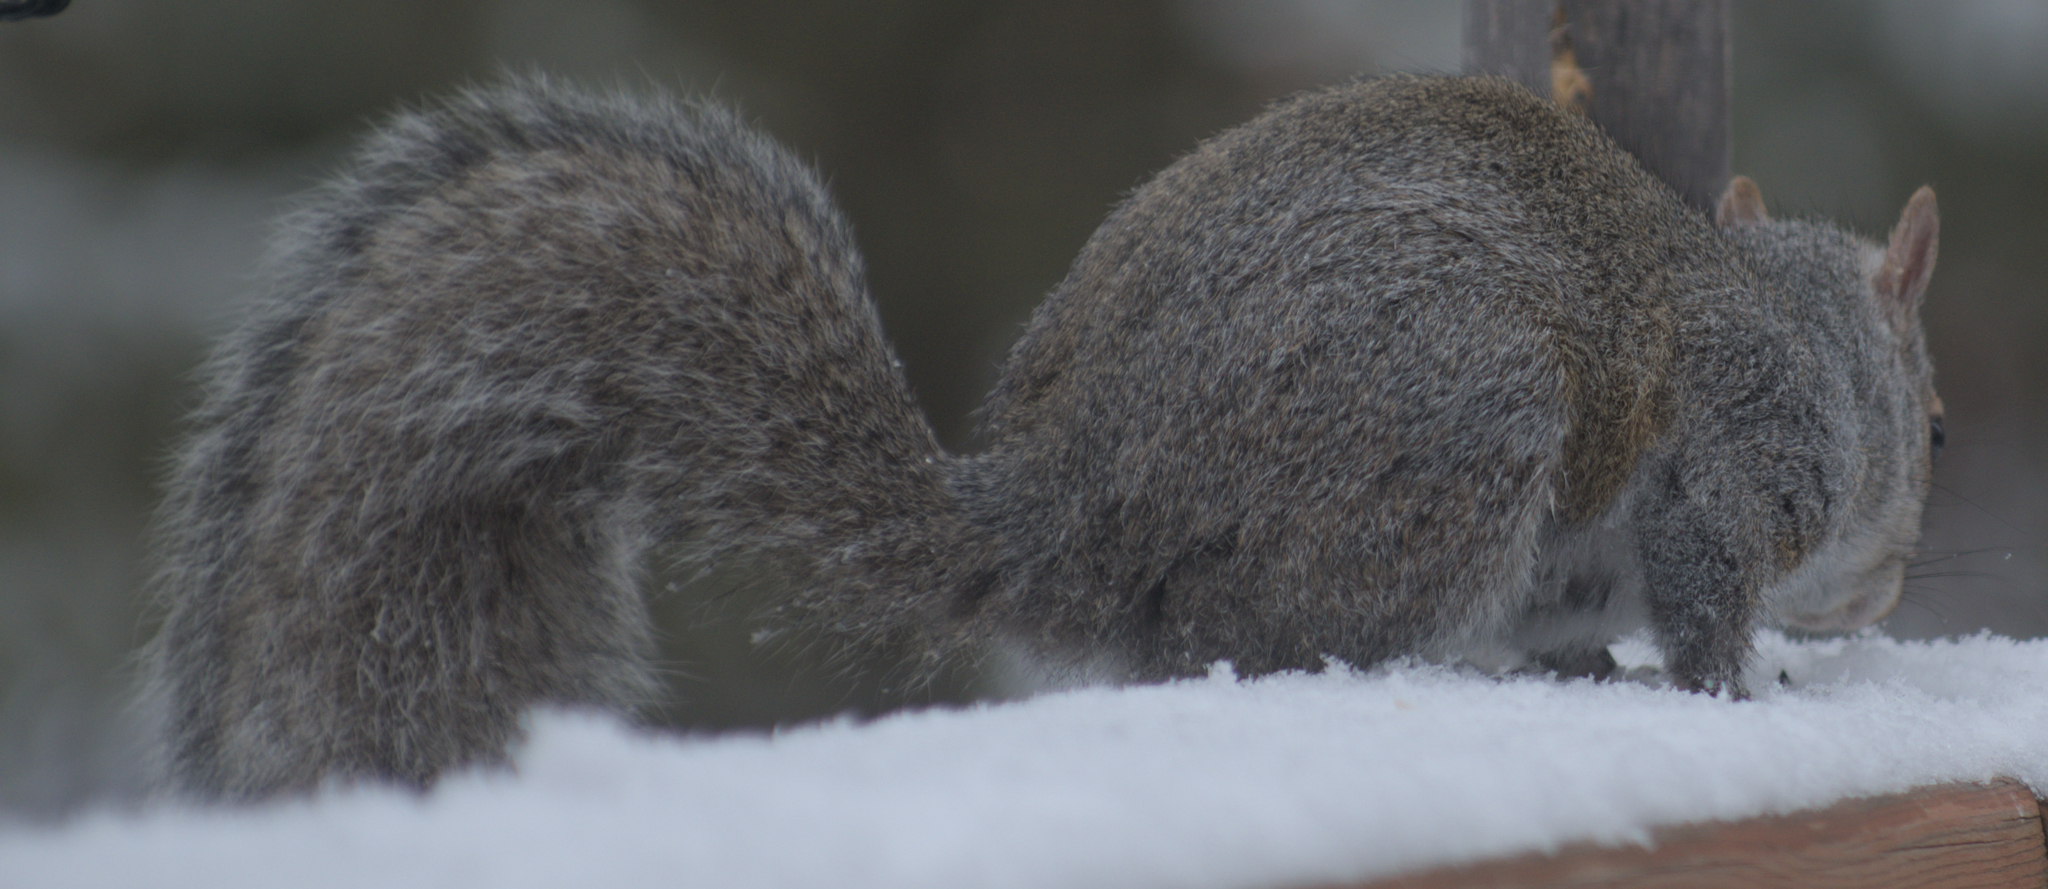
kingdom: Animalia
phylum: Chordata
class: Mammalia
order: Rodentia
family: Sciuridae
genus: Sciurus
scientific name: Sciurus carolinensis
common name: Eastern gray squirrel
